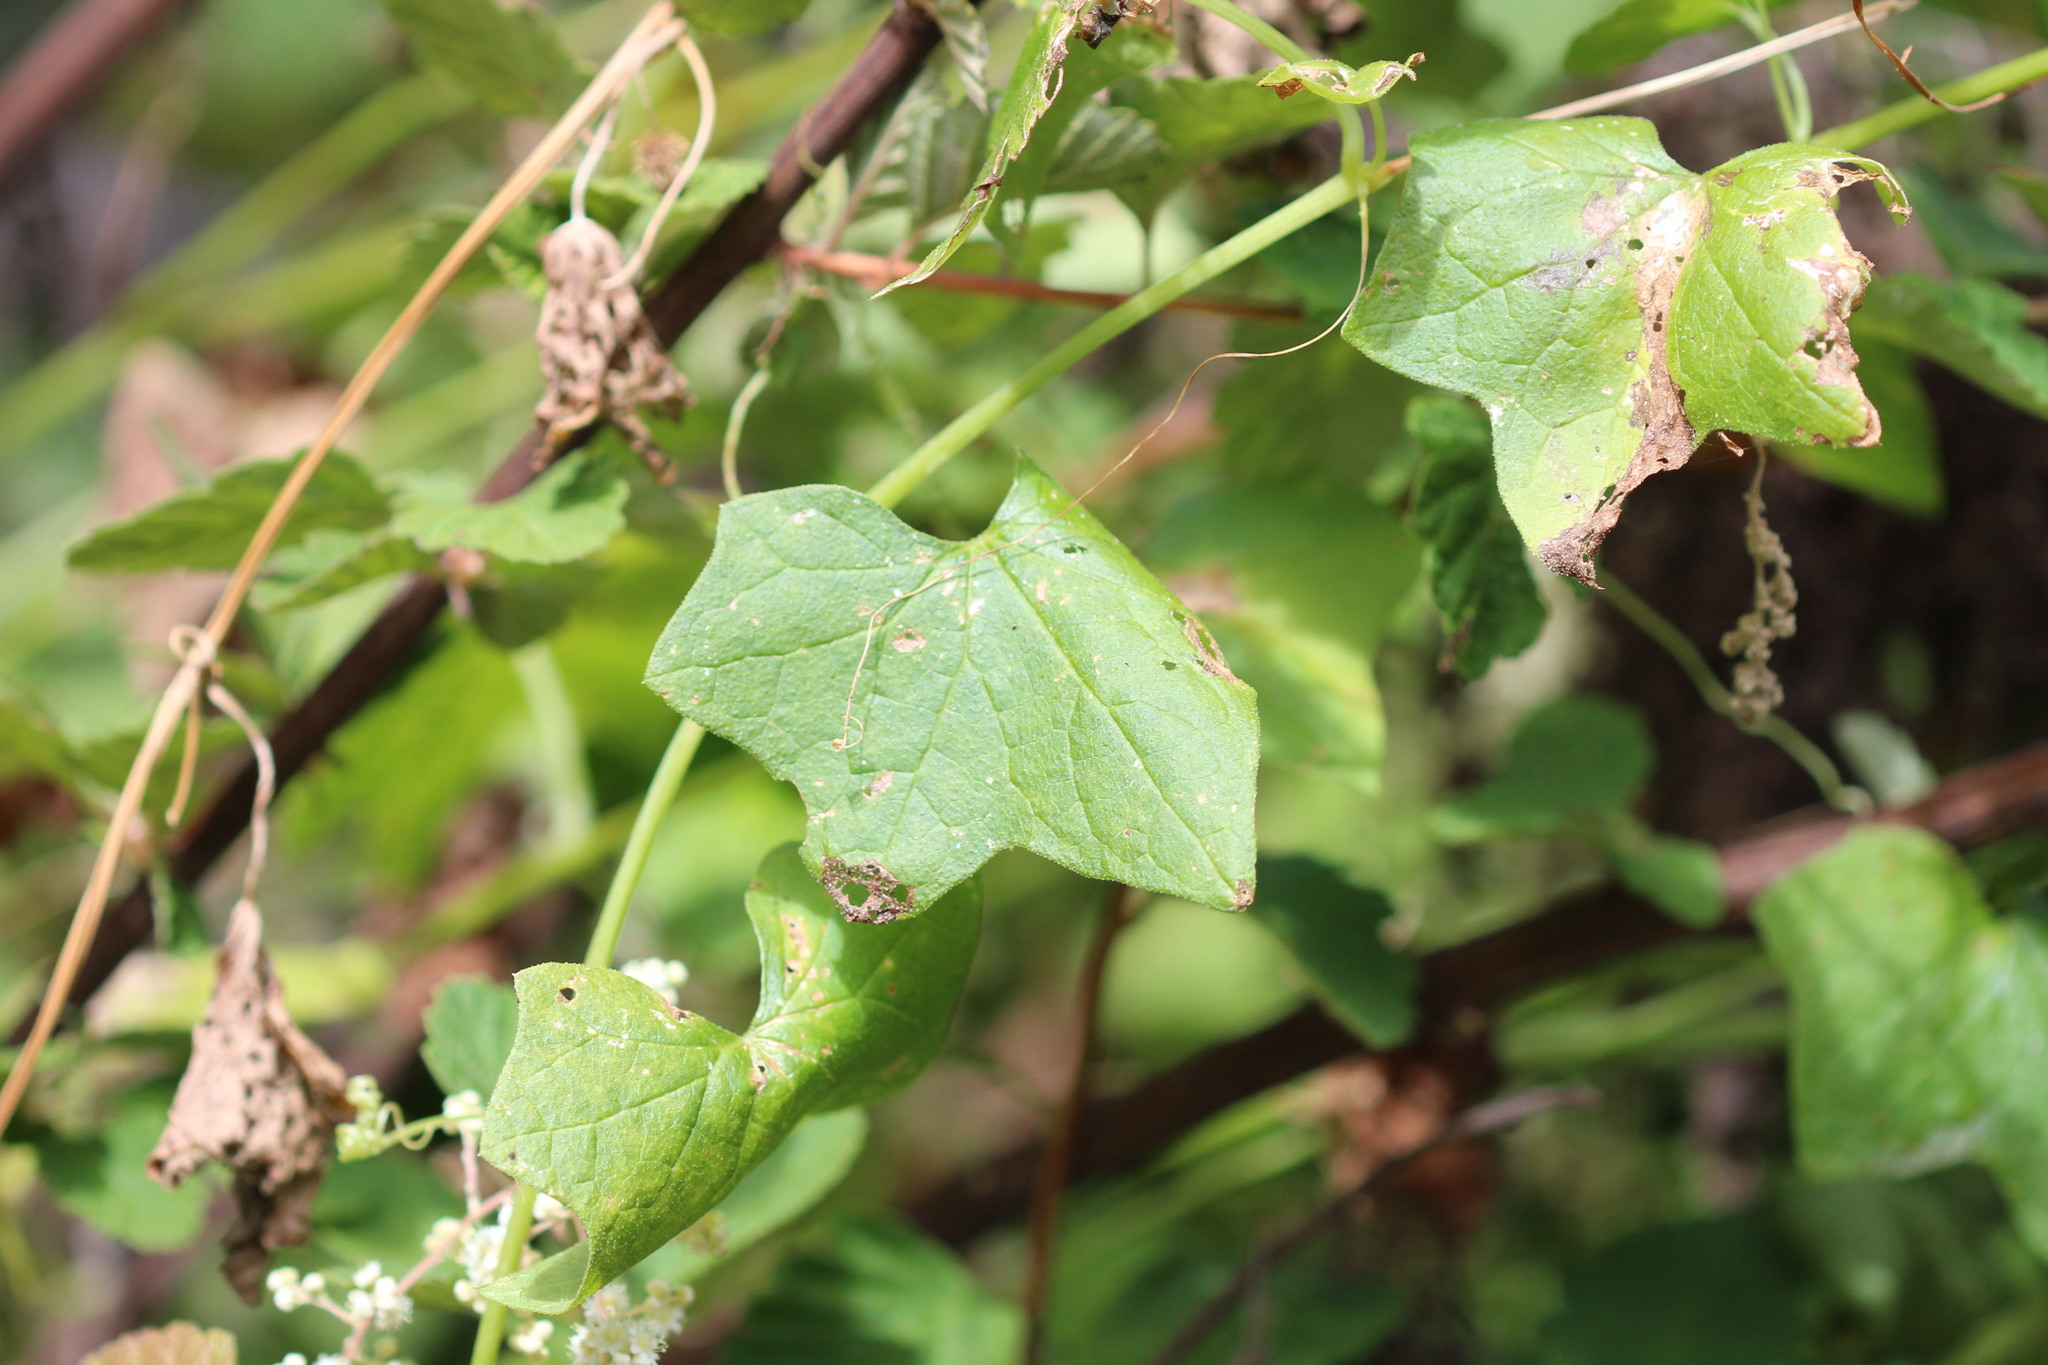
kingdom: Plantae
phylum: Tracheophyta
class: Magnoliopsida
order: Cucurbitales
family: Cucurbitaceae
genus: Marah
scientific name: Marah fabacea
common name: California manroot
